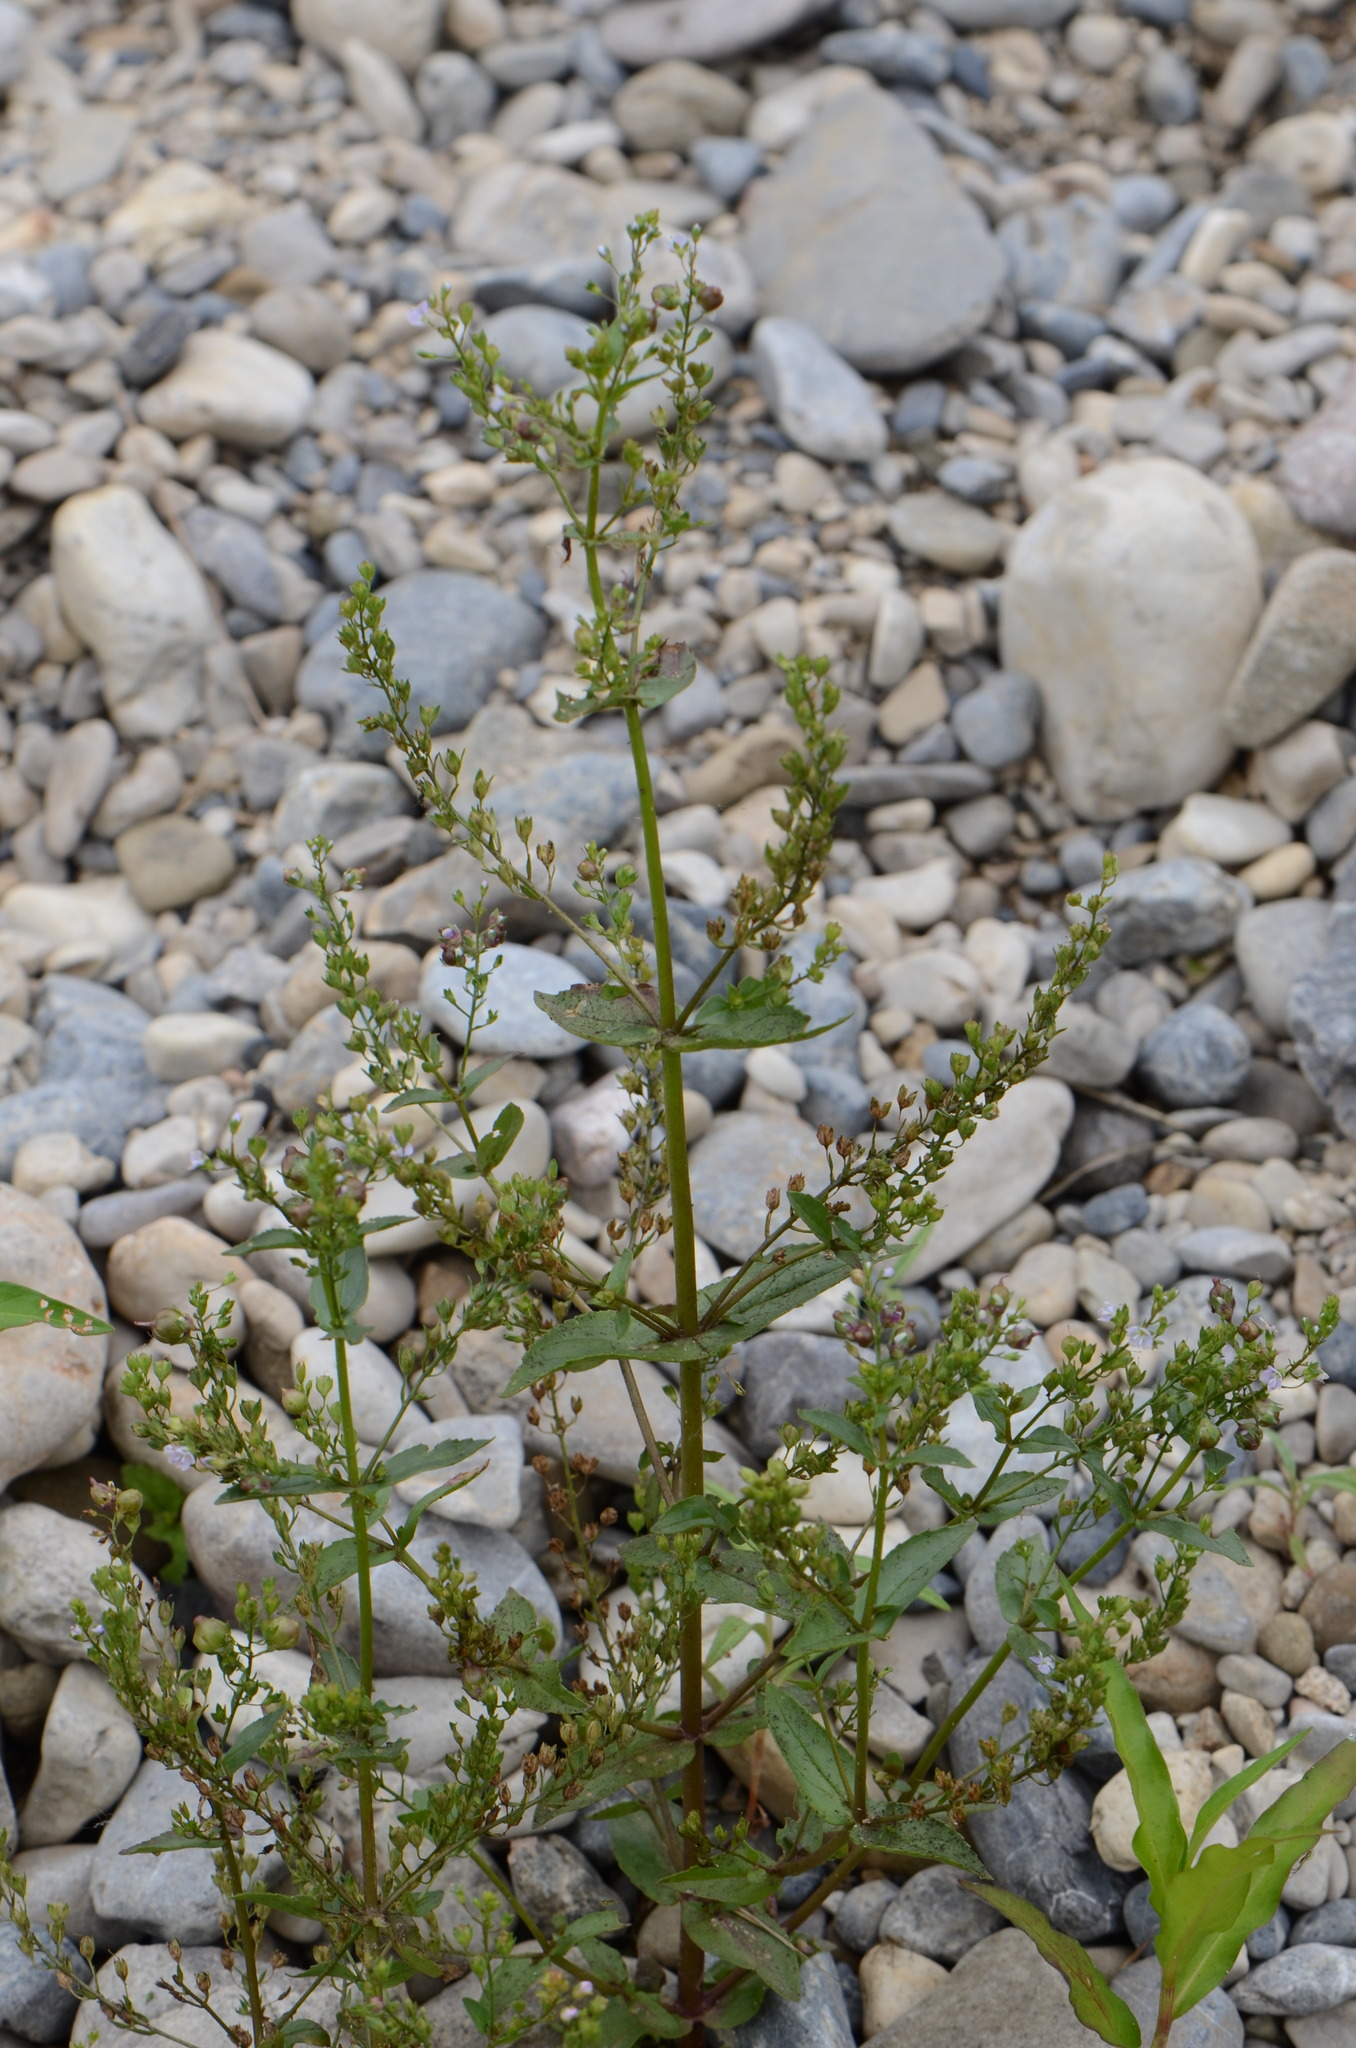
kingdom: Plantae
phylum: Tracheophyta
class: Magnoliopsida
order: Lamiales
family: Plantaginaceae
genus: Veronica
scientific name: Veronica anagallis-aquatica
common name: Water speedwell
